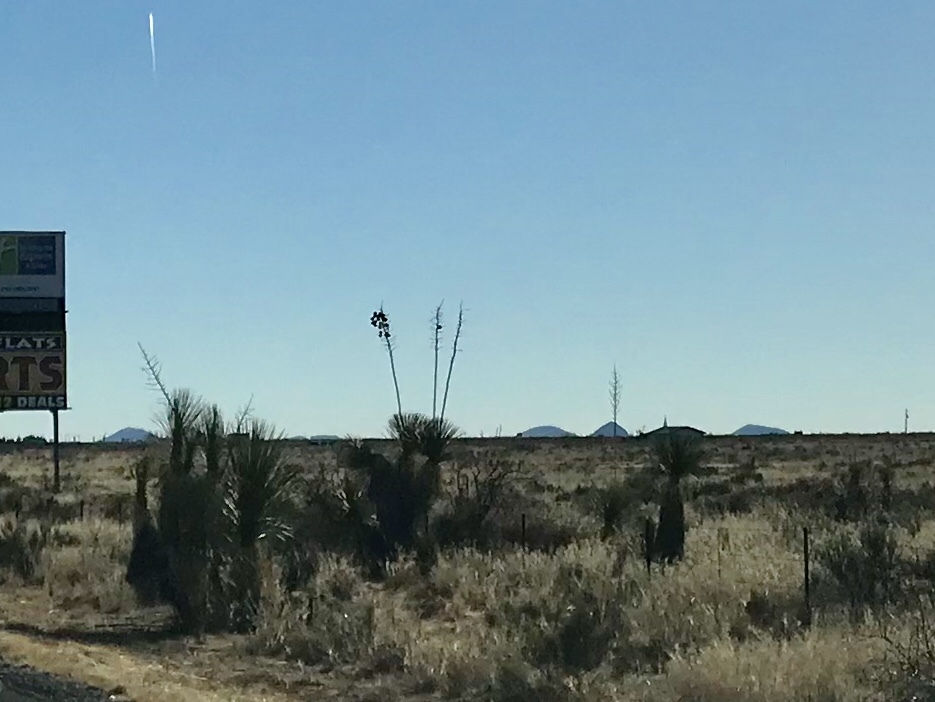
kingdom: Plantae
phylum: Tracheophyta
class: Liliopsida
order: Asparagales
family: Asparagaceae
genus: Yucca
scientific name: Yucca elata
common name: Palmella
